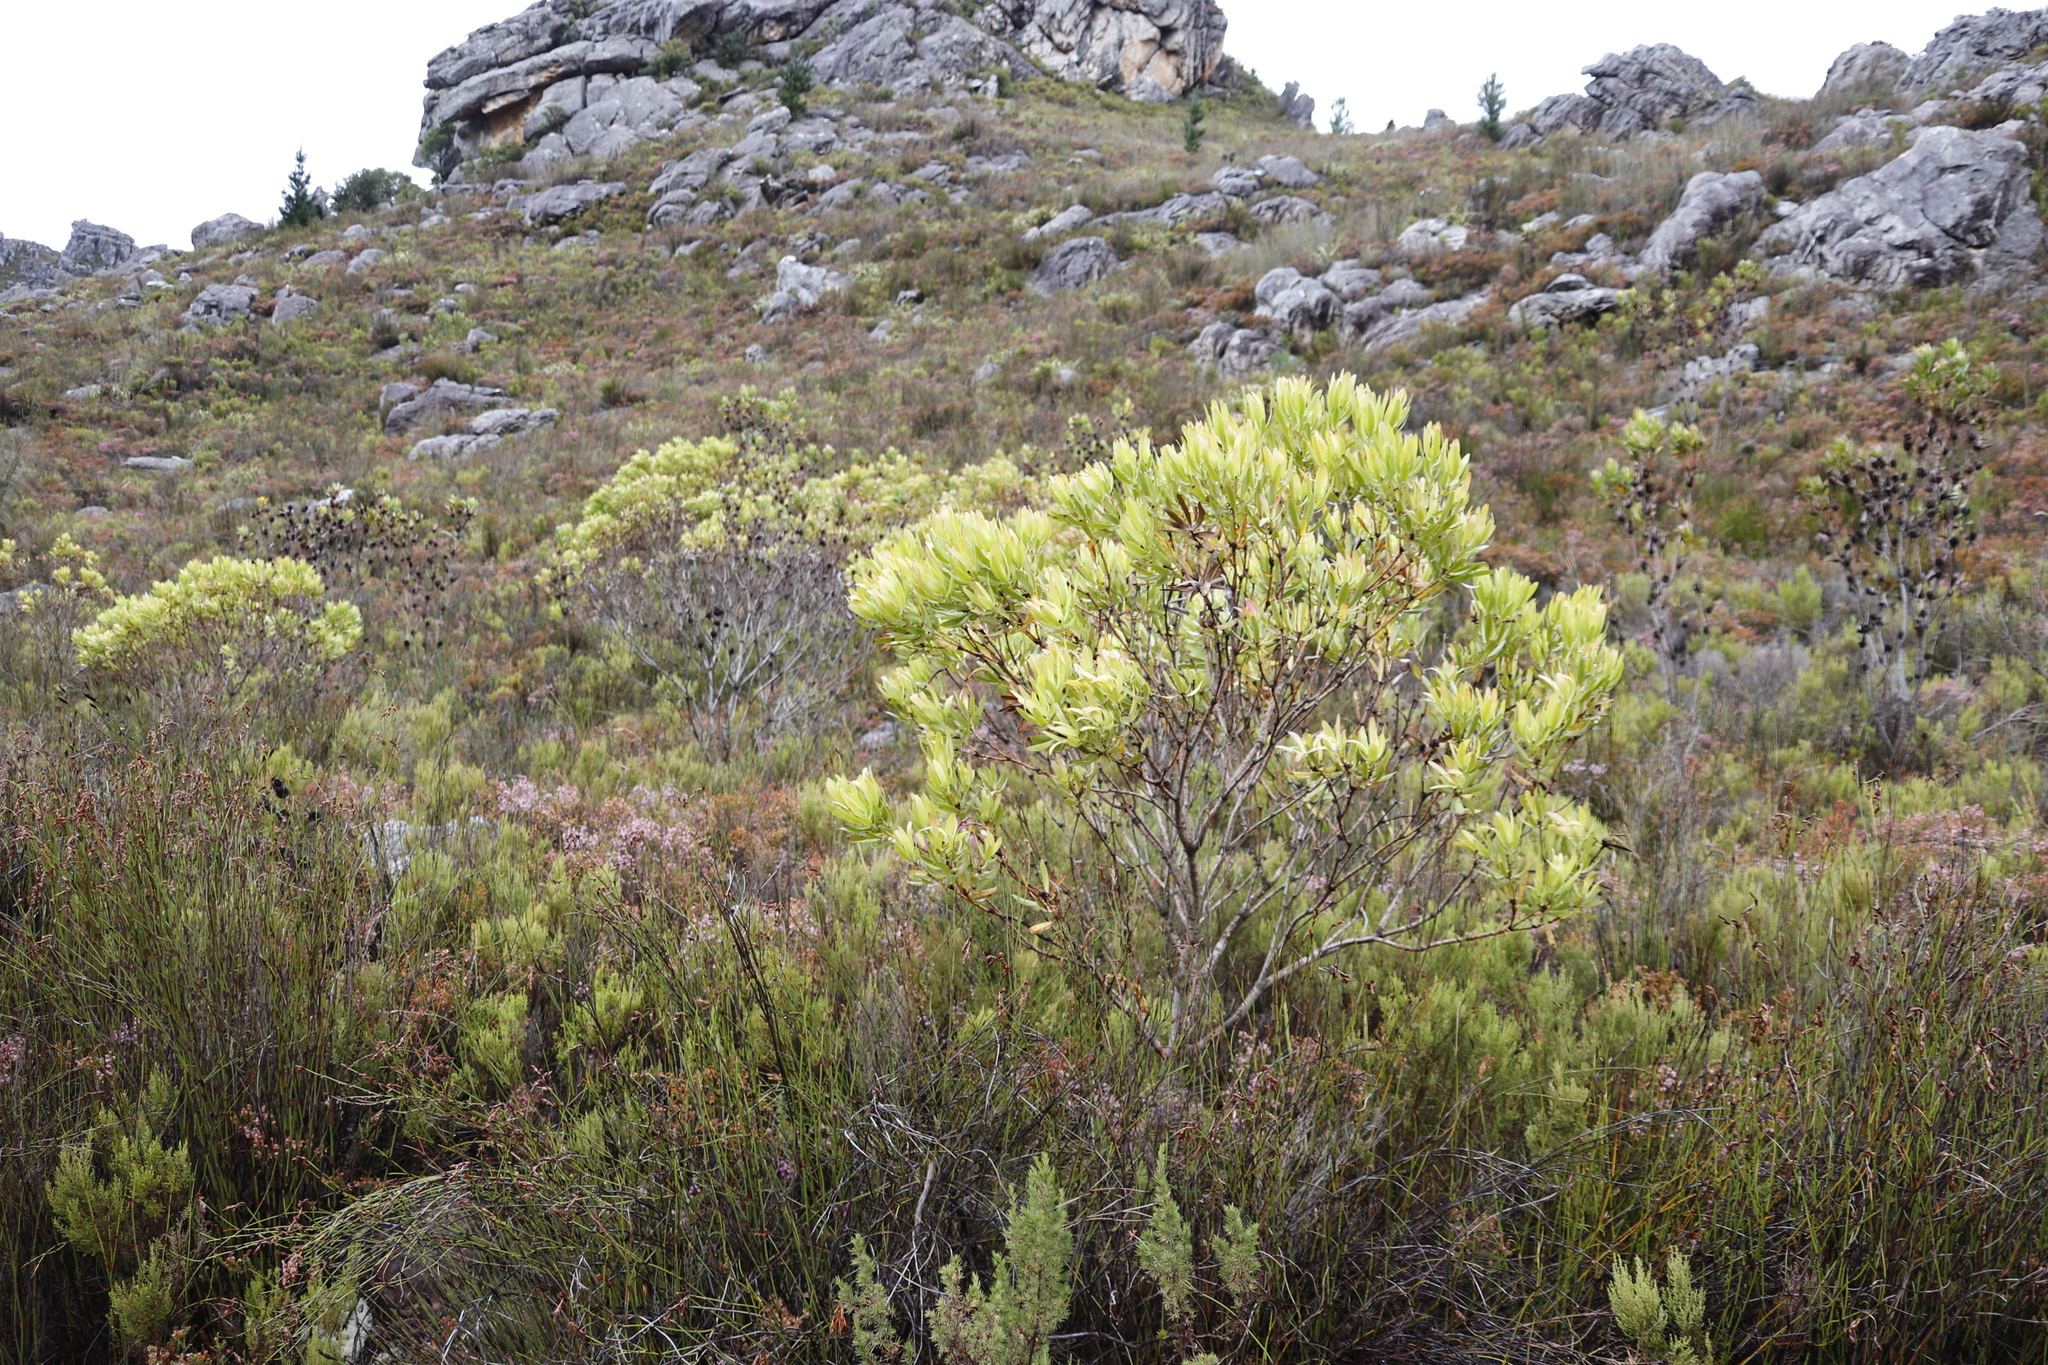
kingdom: Plantae
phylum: Tracheophyta
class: Magnoliopsida
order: Proteales
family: Proteaceae
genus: Leucadendron
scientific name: Leucadendron microcephalum
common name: Oilbract conebush
